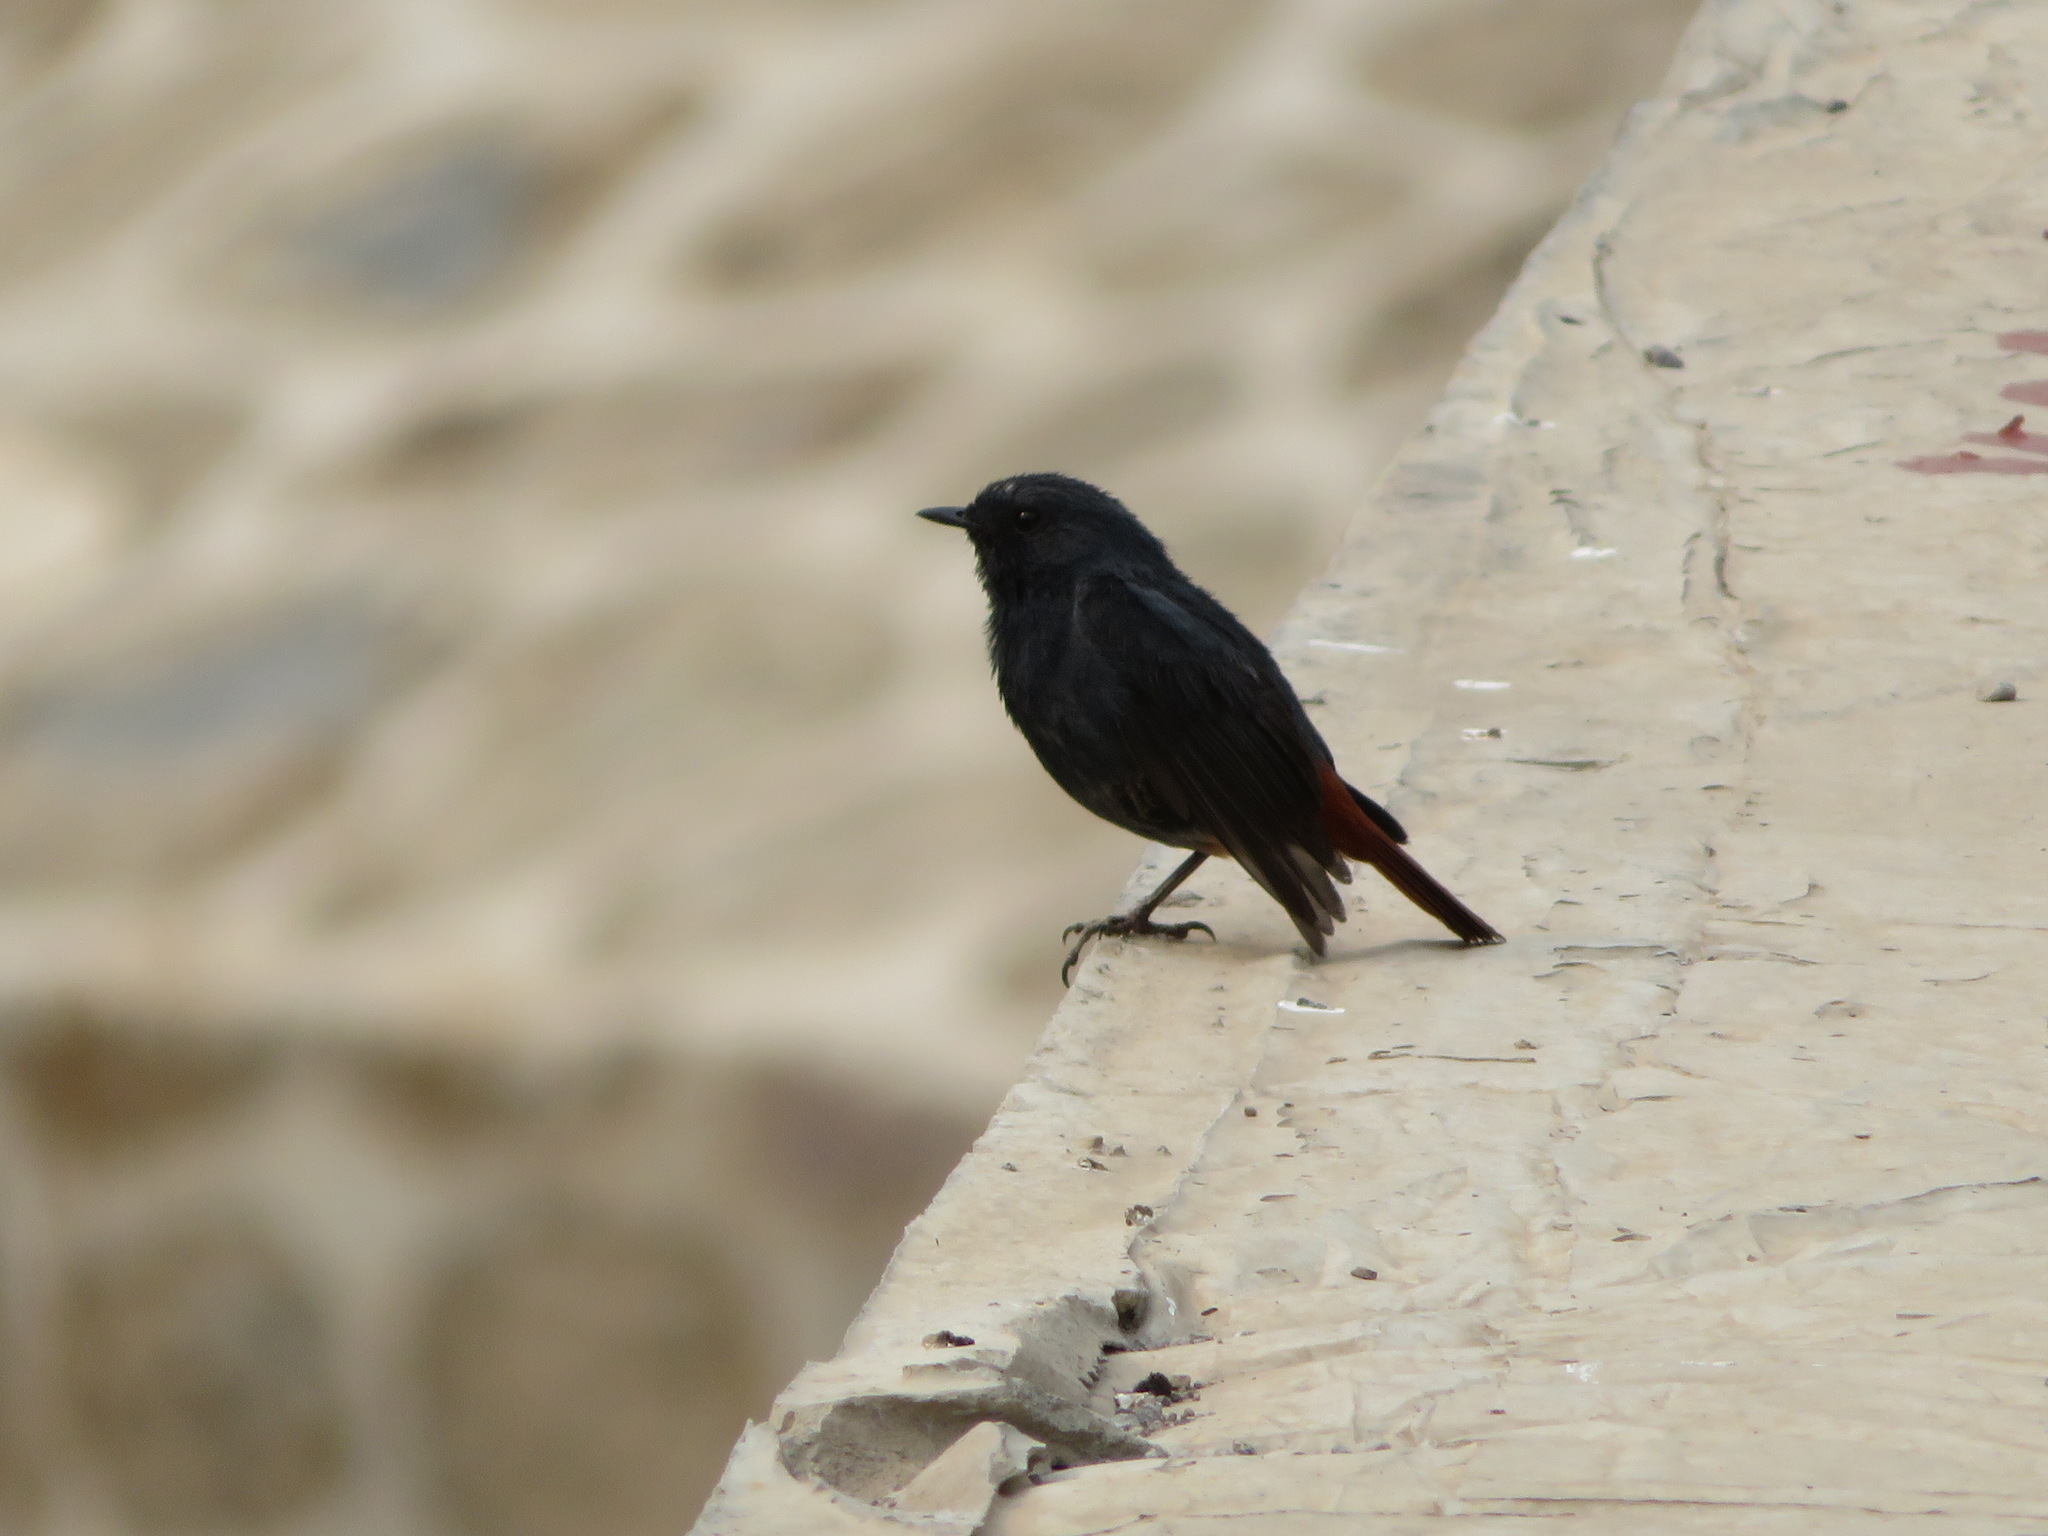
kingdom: Animalia
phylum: Chordata
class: Aves
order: Passeriformes
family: Muscicapidae
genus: Phoenicurus
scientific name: Phoenicurus fuliginosus
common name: Plumbeous water redstart
